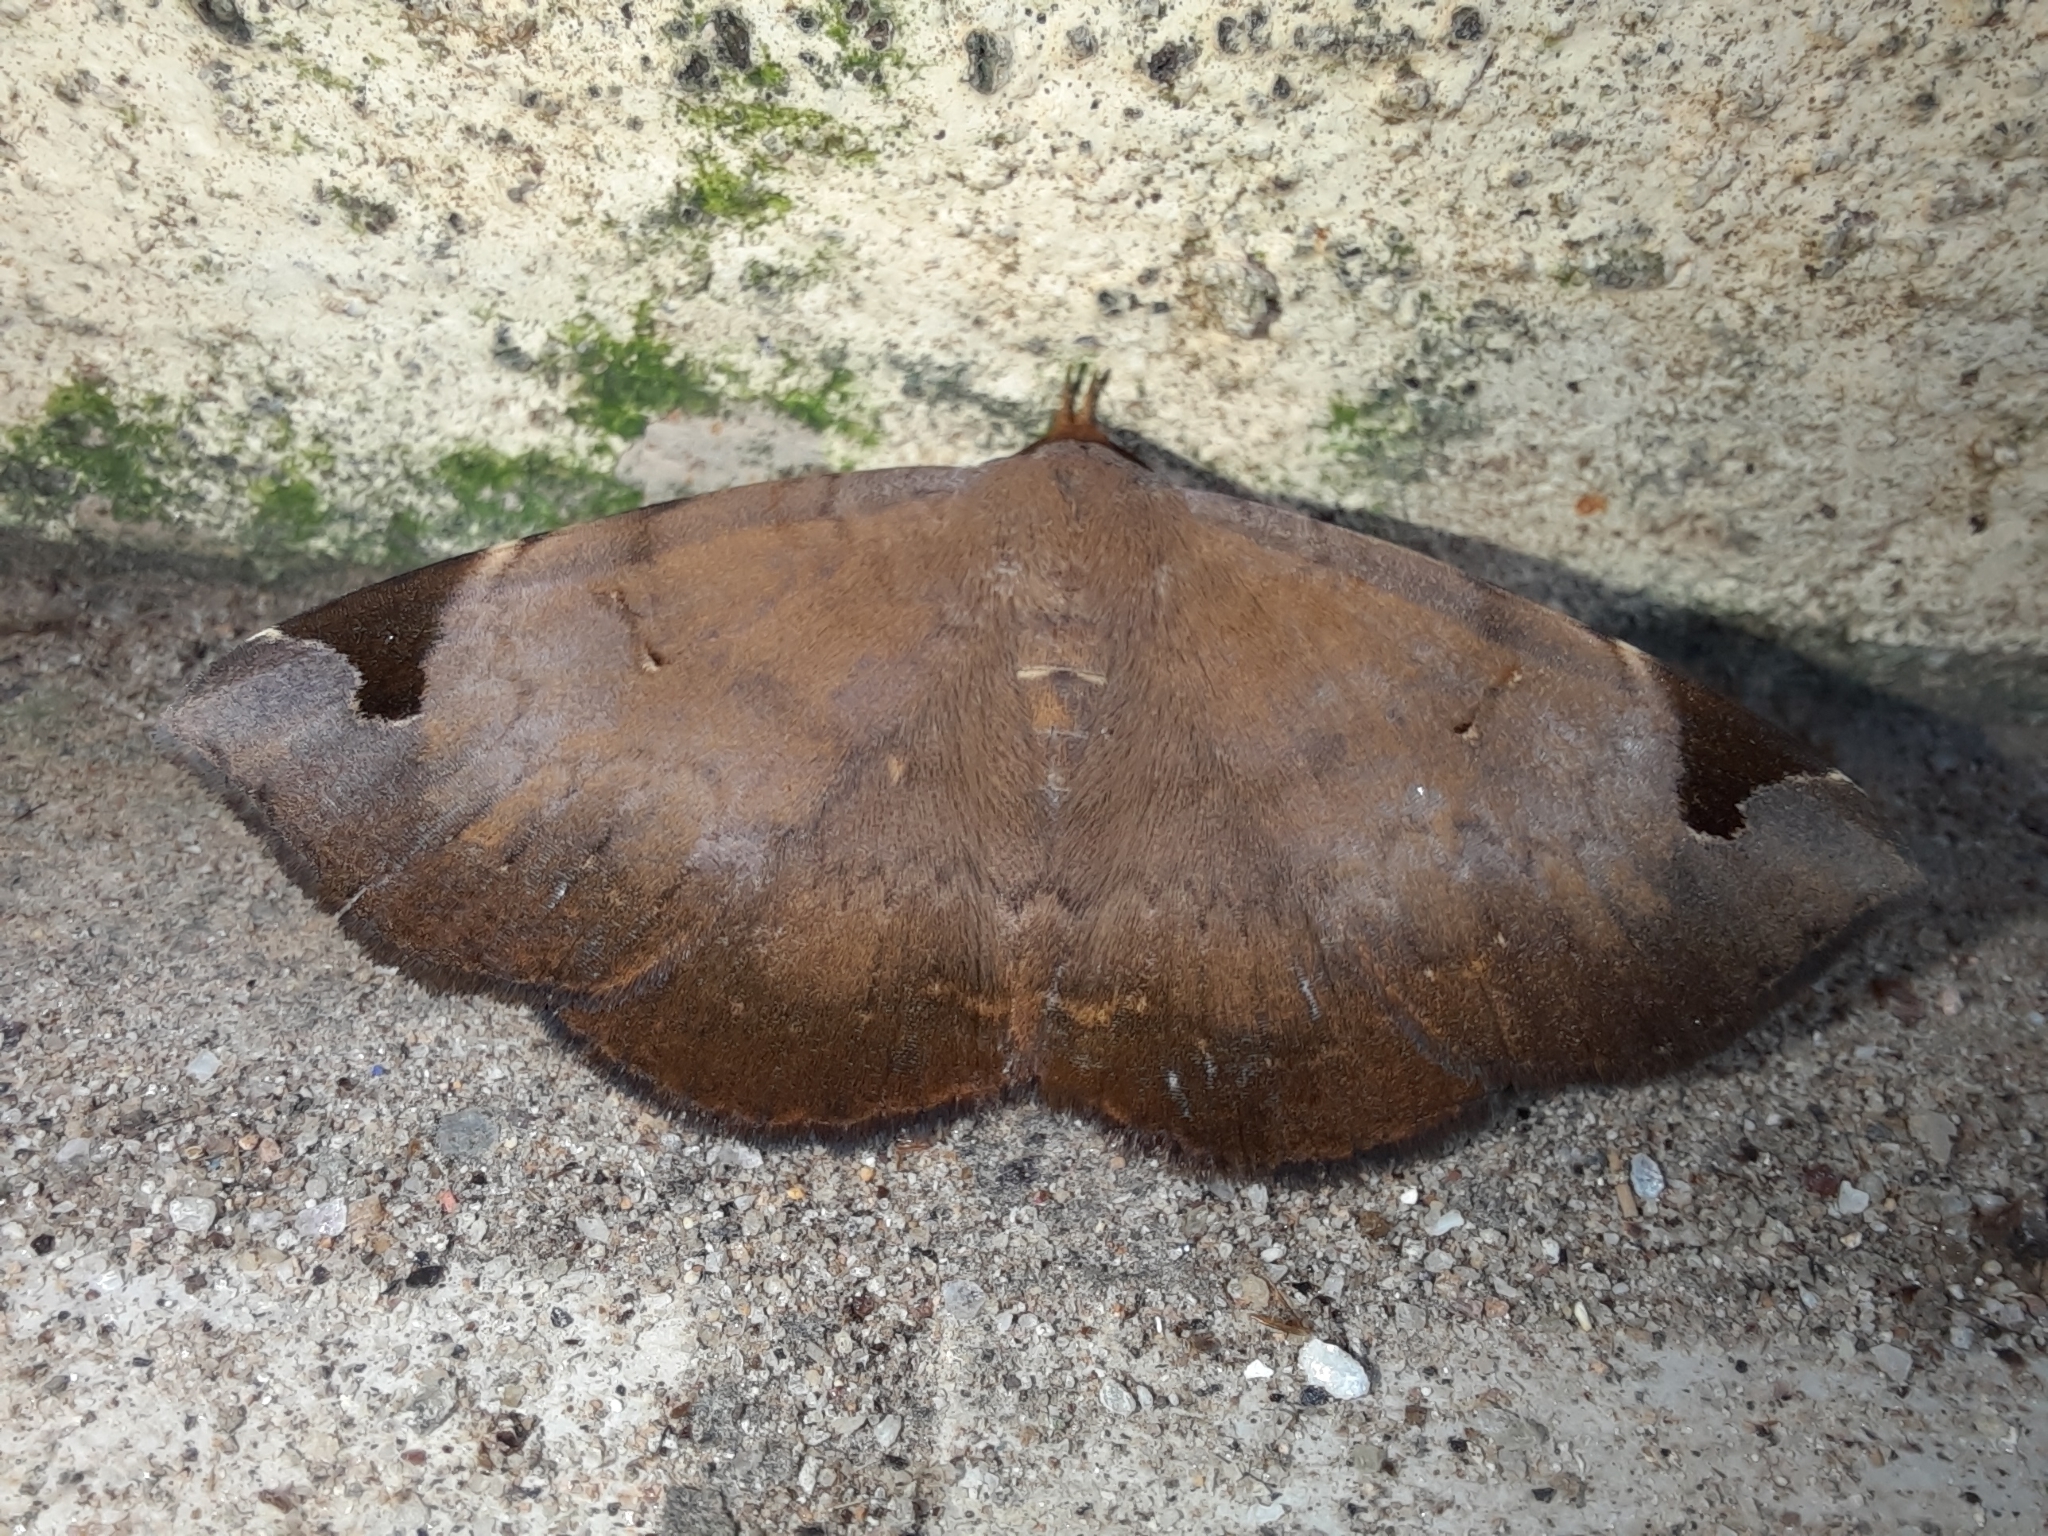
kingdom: Animalia
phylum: Arthropoda
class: Insecta
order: Lepidoptera
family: Erebidae
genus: Mecodina
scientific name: Mecodina praecipua
